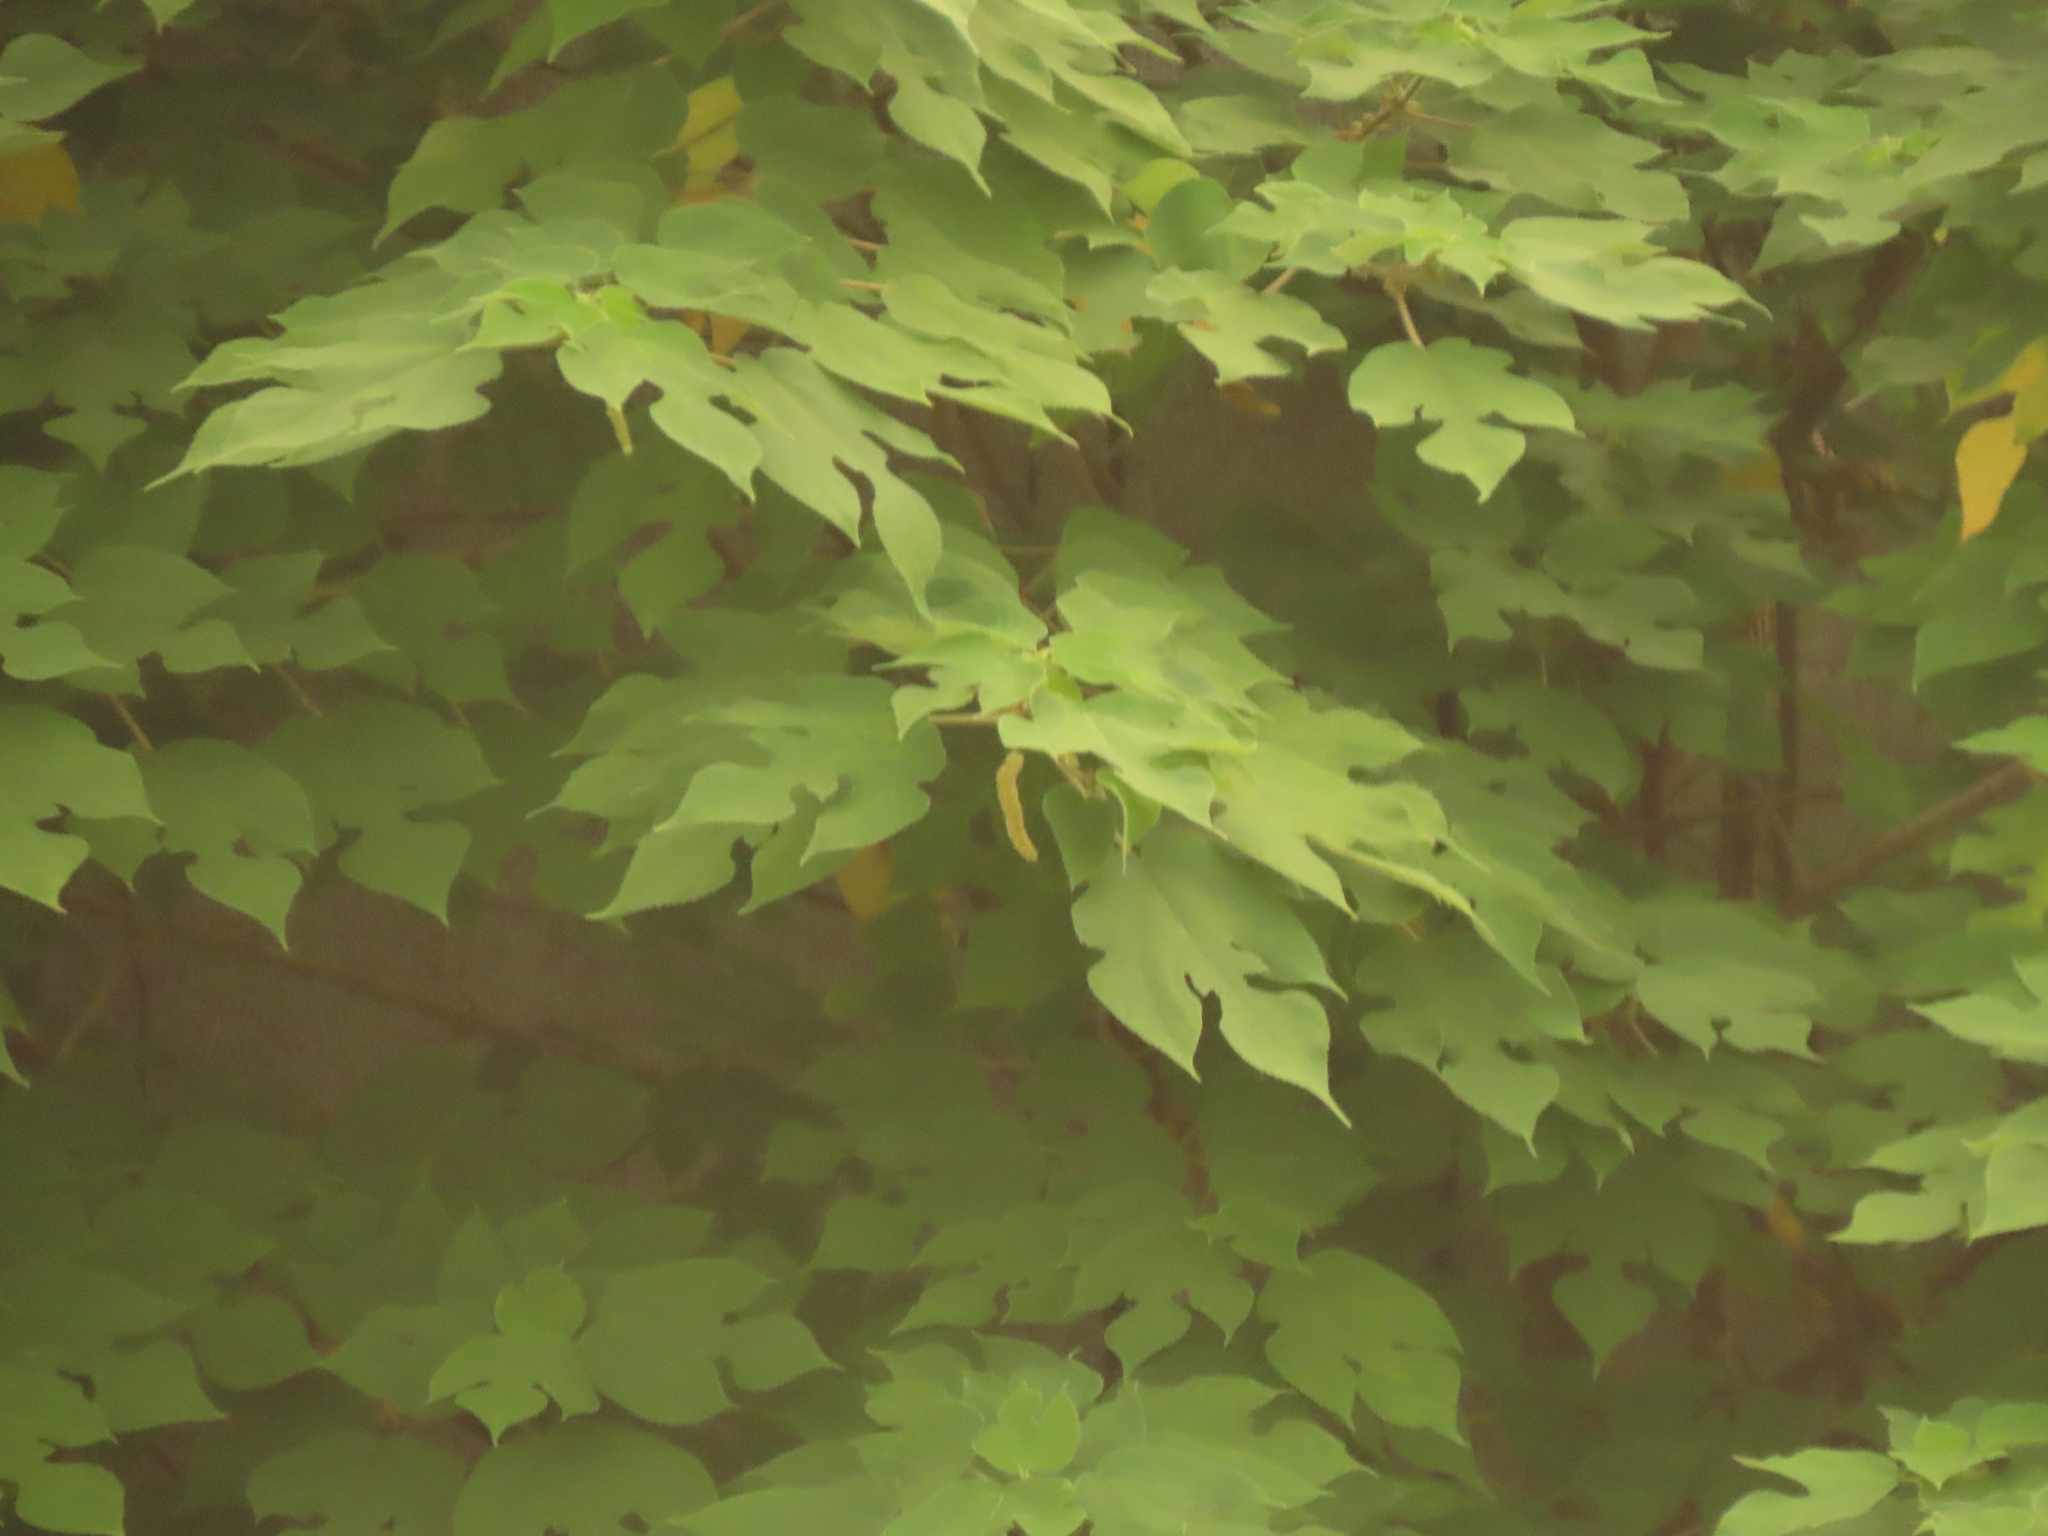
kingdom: Plantae
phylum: Tracheophyta
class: Magnoliopsida
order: Rosales
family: Moraceae
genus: Broussonetia
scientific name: Broussonetia papyrifera
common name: Paper mulberry
